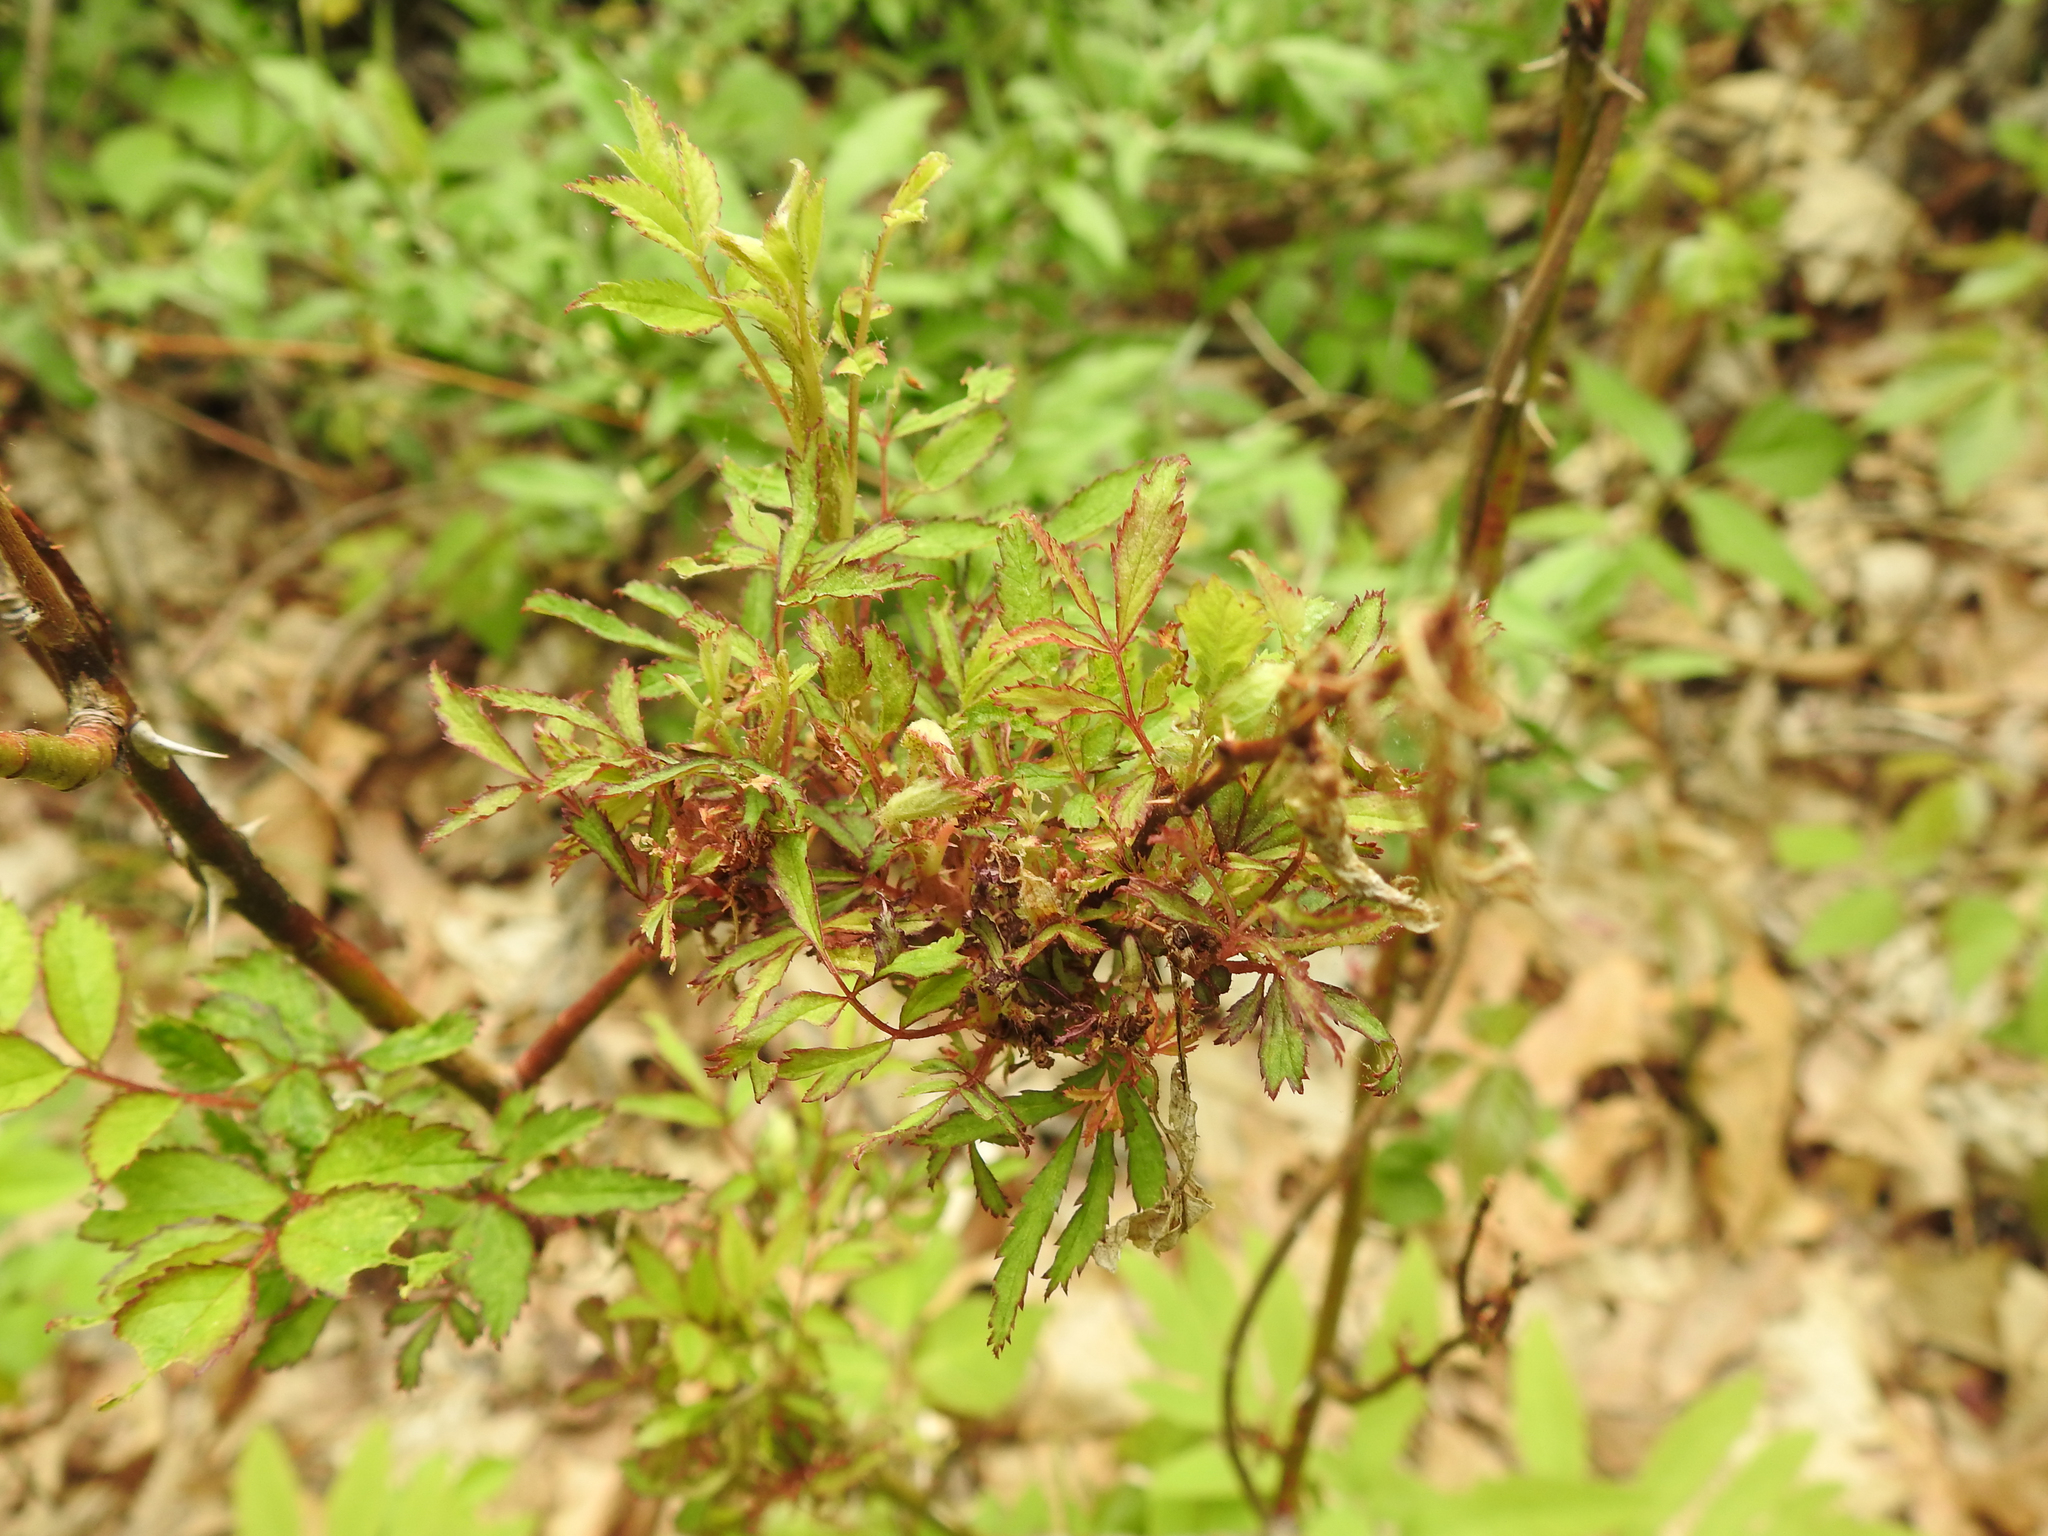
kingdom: Plantae
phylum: Tracheophyta
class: Magnoliopsida
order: Rosales
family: Rosaceae
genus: Rosa
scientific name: Rosa multiflora
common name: Multiflora rose
